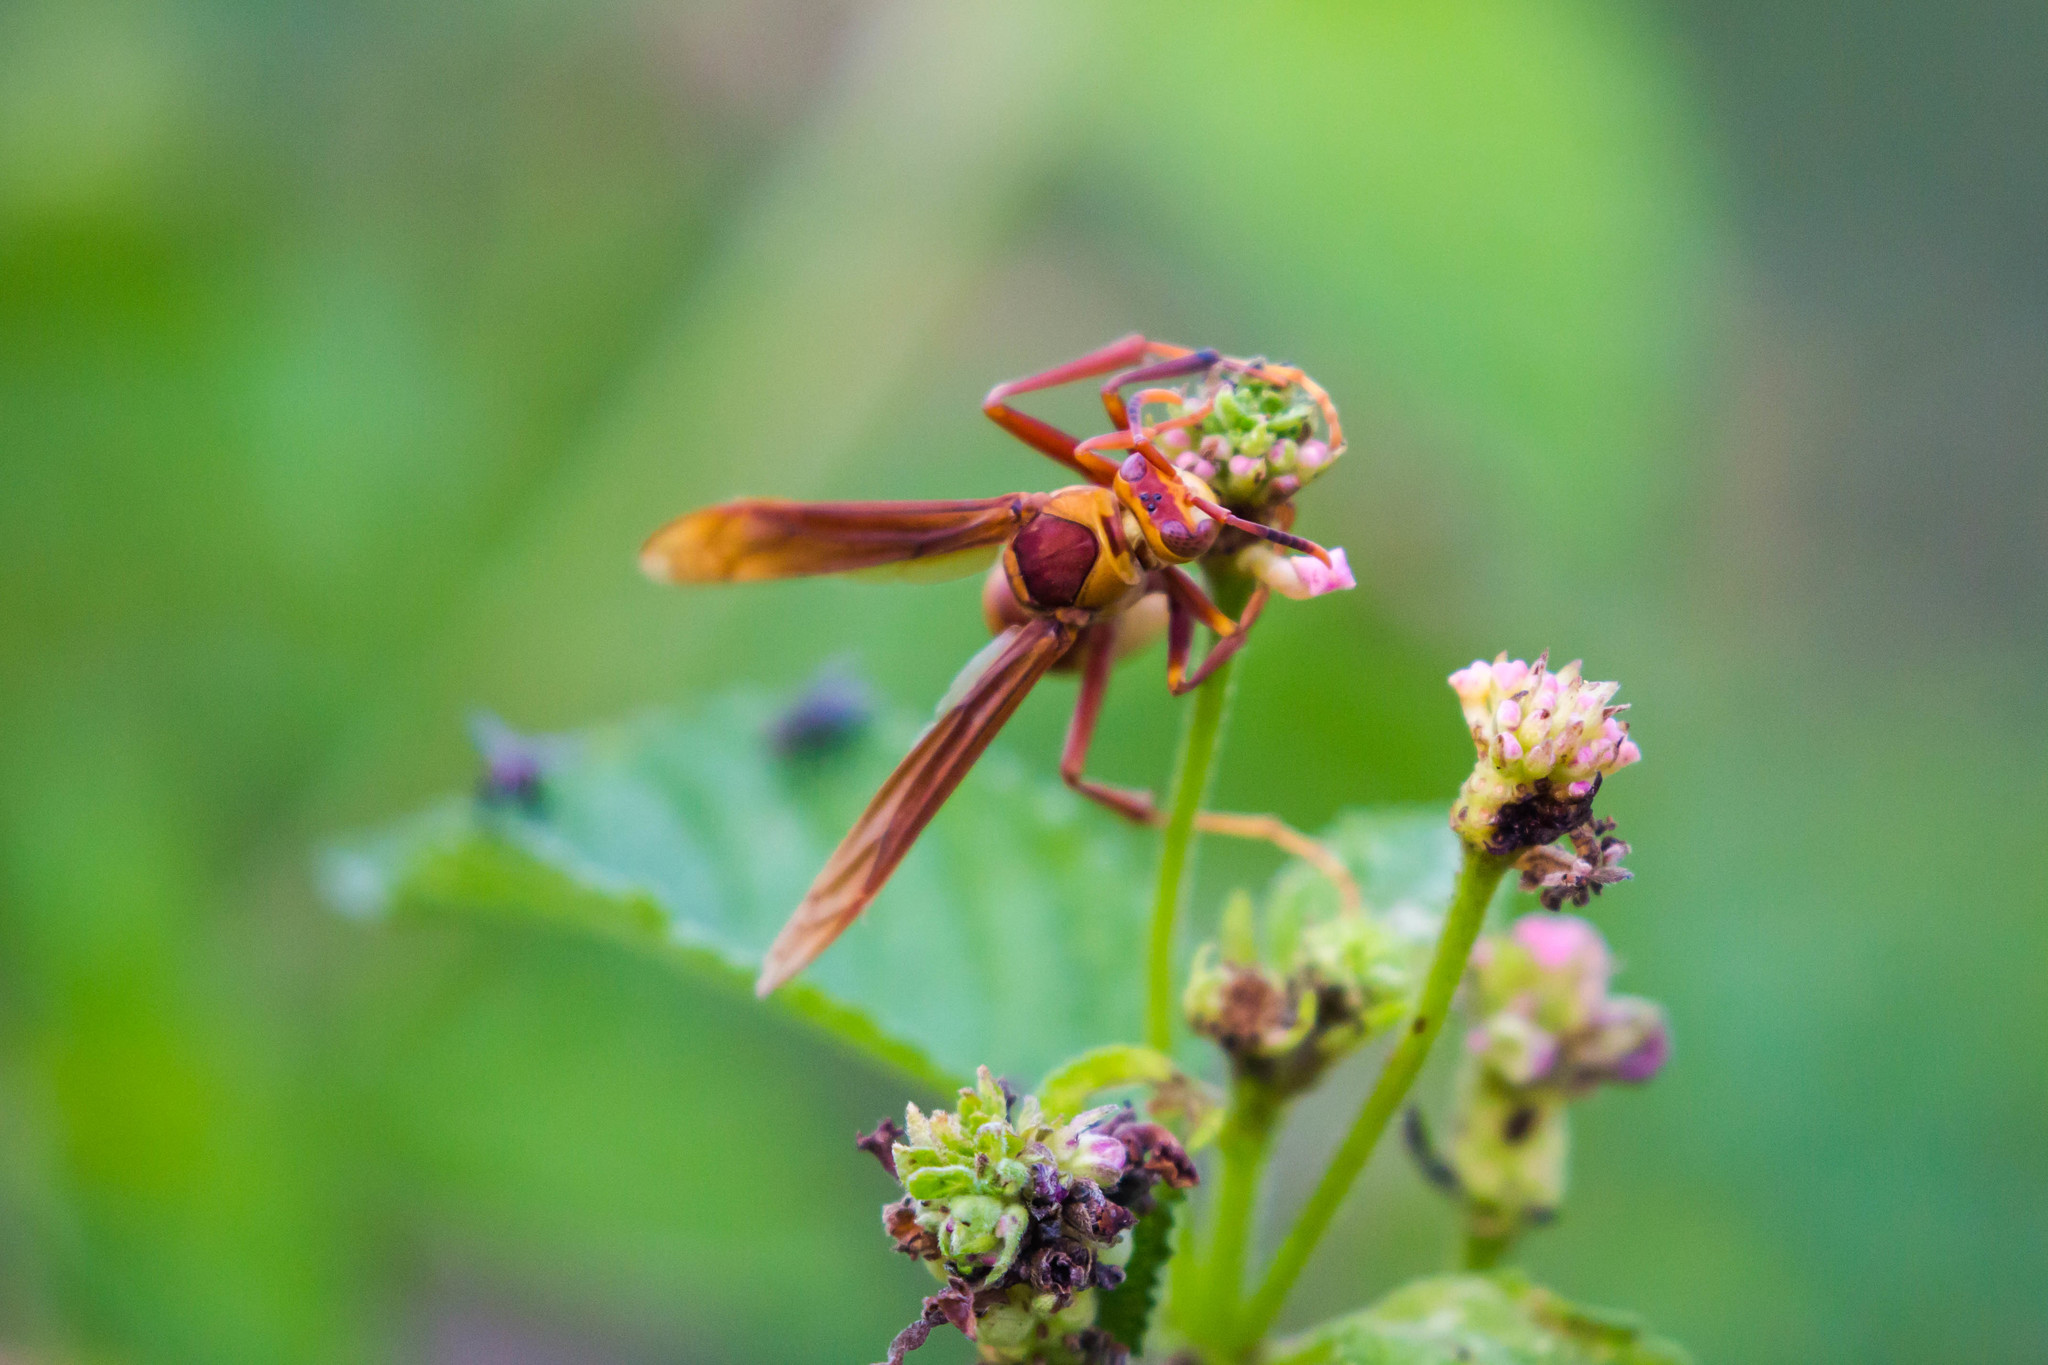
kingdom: Animalia
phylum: Arthropoda
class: Insecta
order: Hymenoptera
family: Eumenidae
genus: Polistes
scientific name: Polistes major
